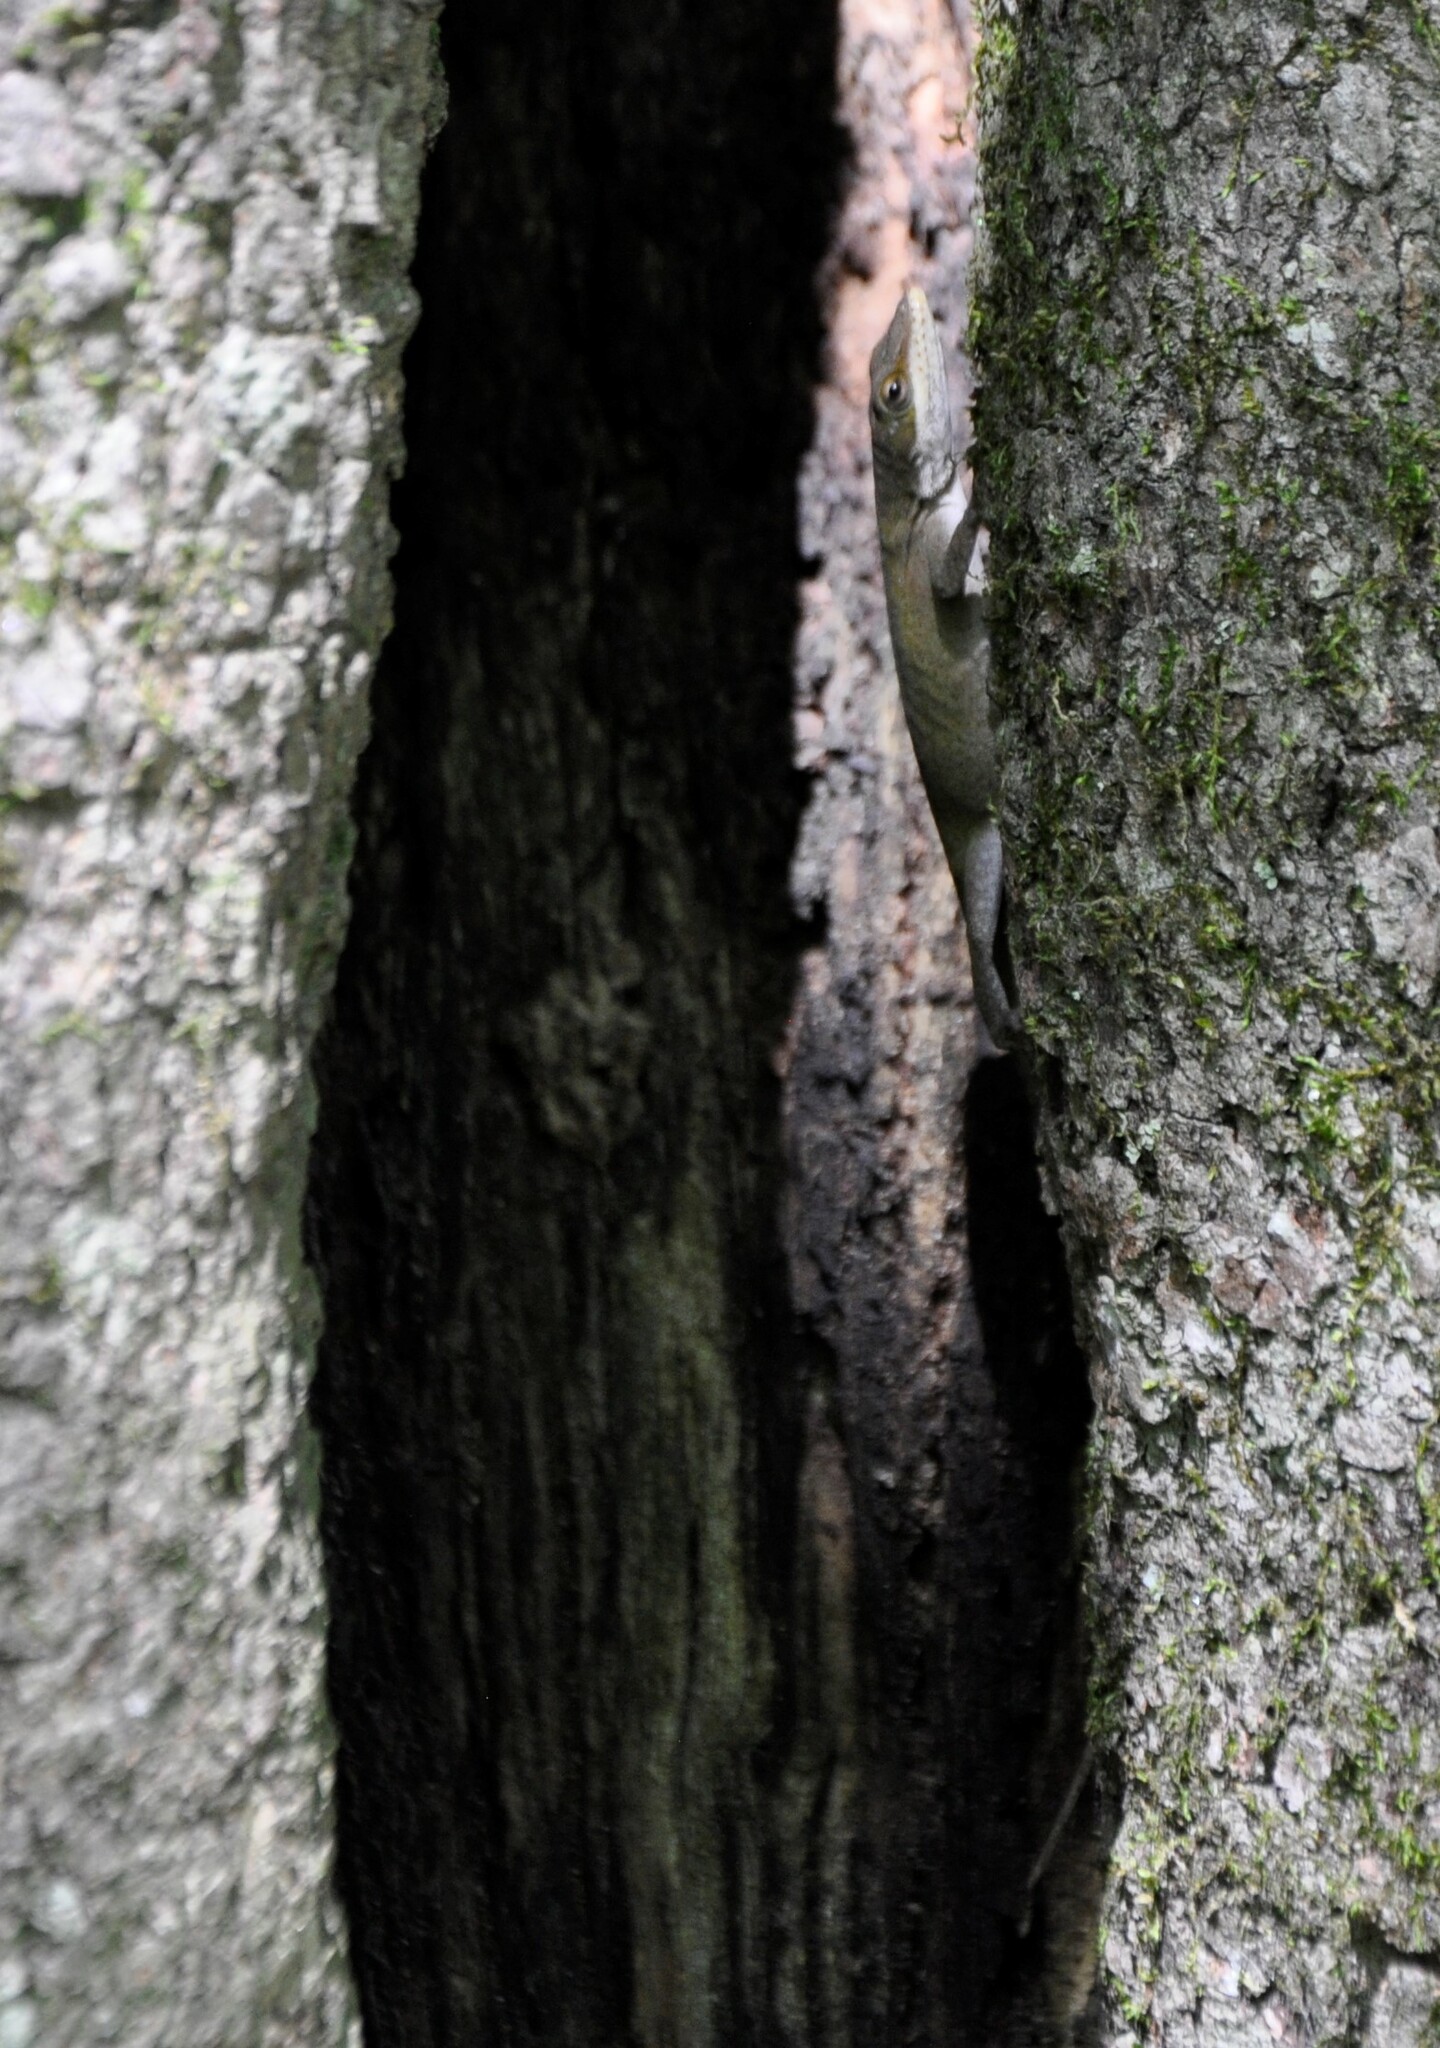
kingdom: Animalia
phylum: Chordata
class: Squamata
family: Dactyloidae
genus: Anolis
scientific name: Anolis carolinensis
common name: Green anole
